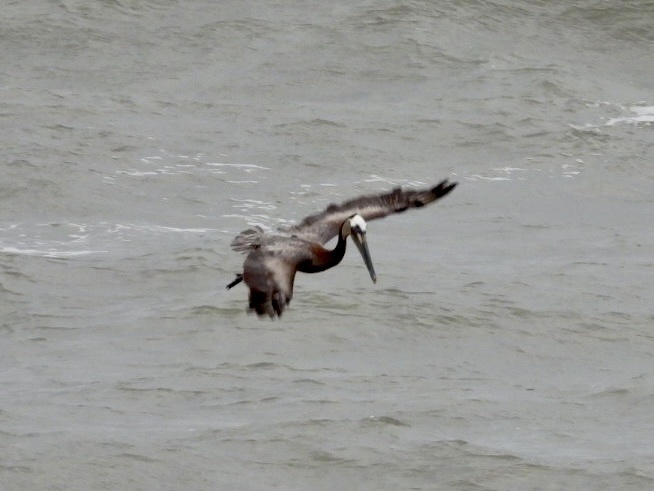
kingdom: Animalia
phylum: Chordata
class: Aves
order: Pelecaniformes
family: Pelecanidae
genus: Pelecanus
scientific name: Pelecanus occidentalis
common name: Brown pelican
